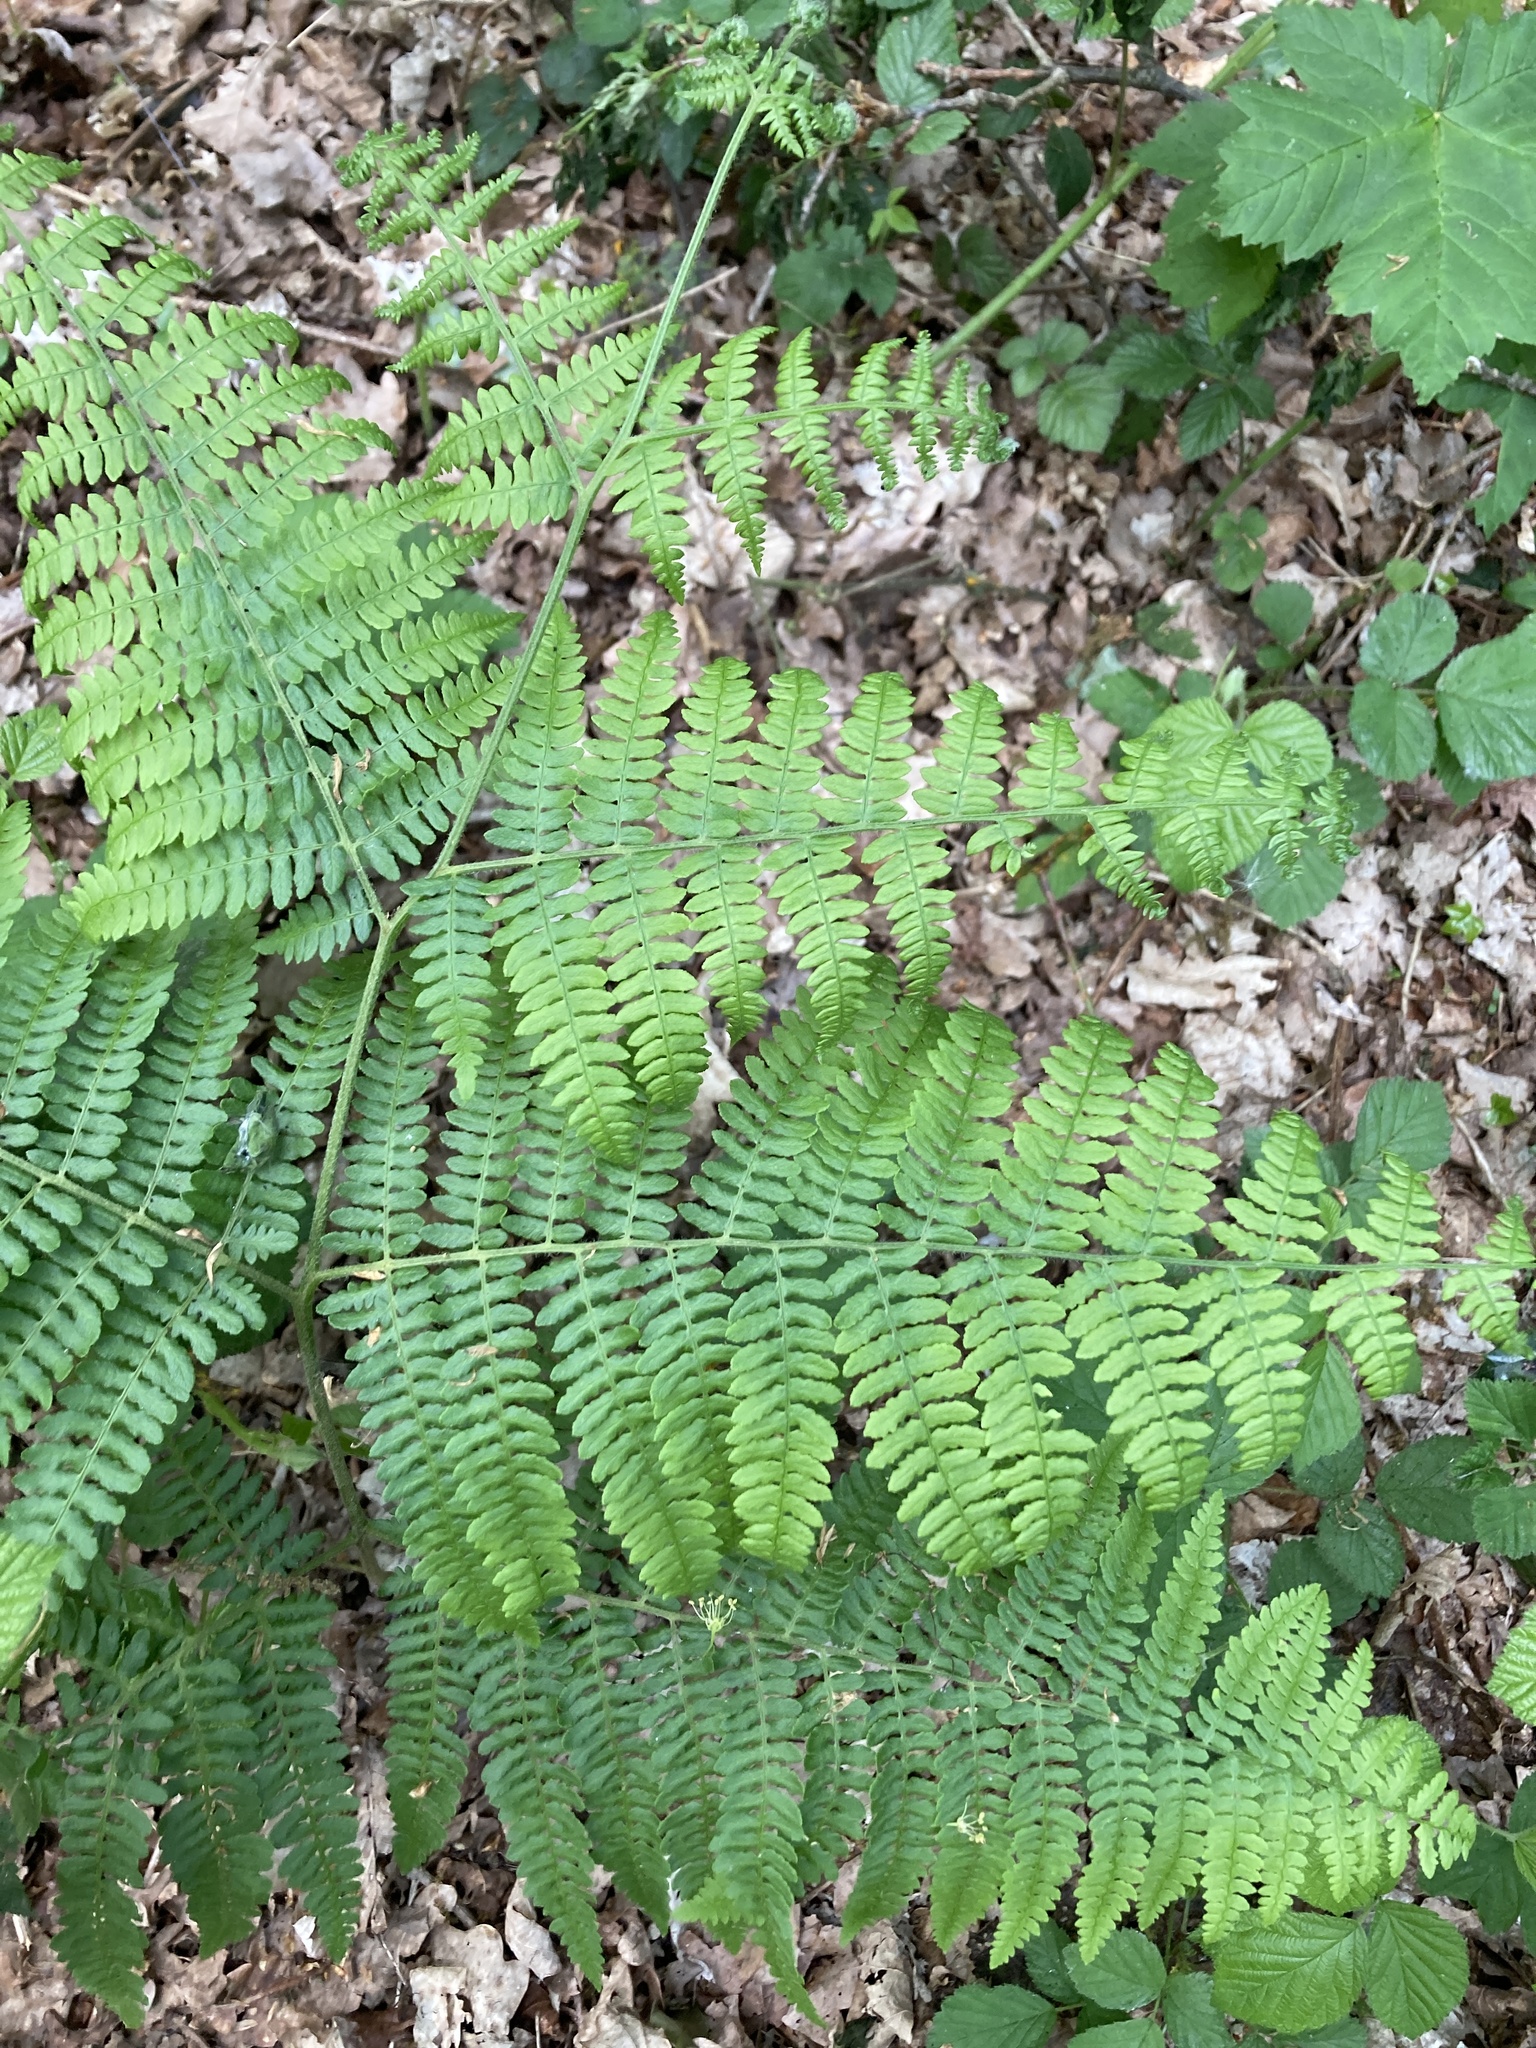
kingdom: Plantae
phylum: Tracheophyta
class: Polypodiopsida
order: Polypodiales
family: Dennstaedtiaceae
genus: Pteridium
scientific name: Pteridium aquilinum
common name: Bracken
